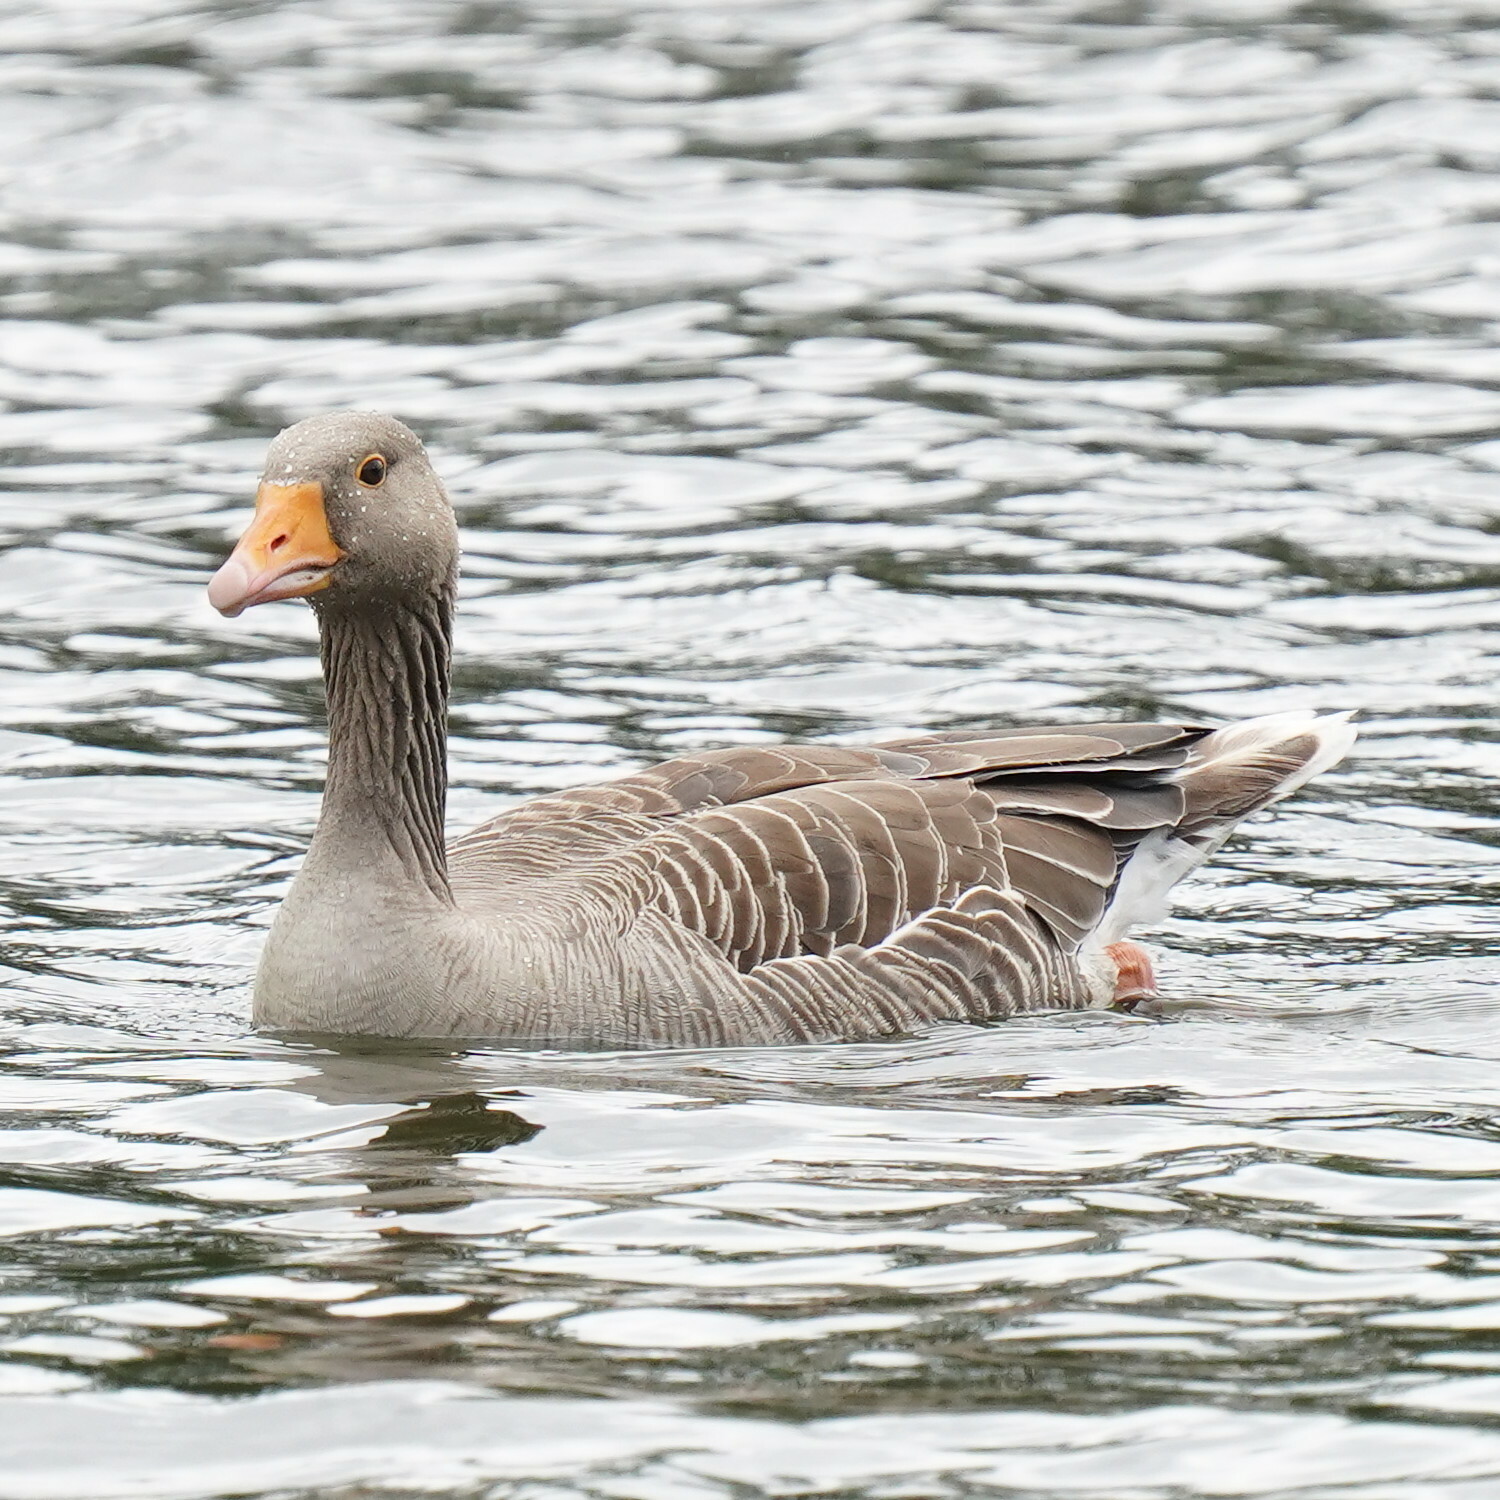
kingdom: Animalia
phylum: Chordata
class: Aves
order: Anseriformes
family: Anatidae
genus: Anser
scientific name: Anser anser
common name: Greylag goose
